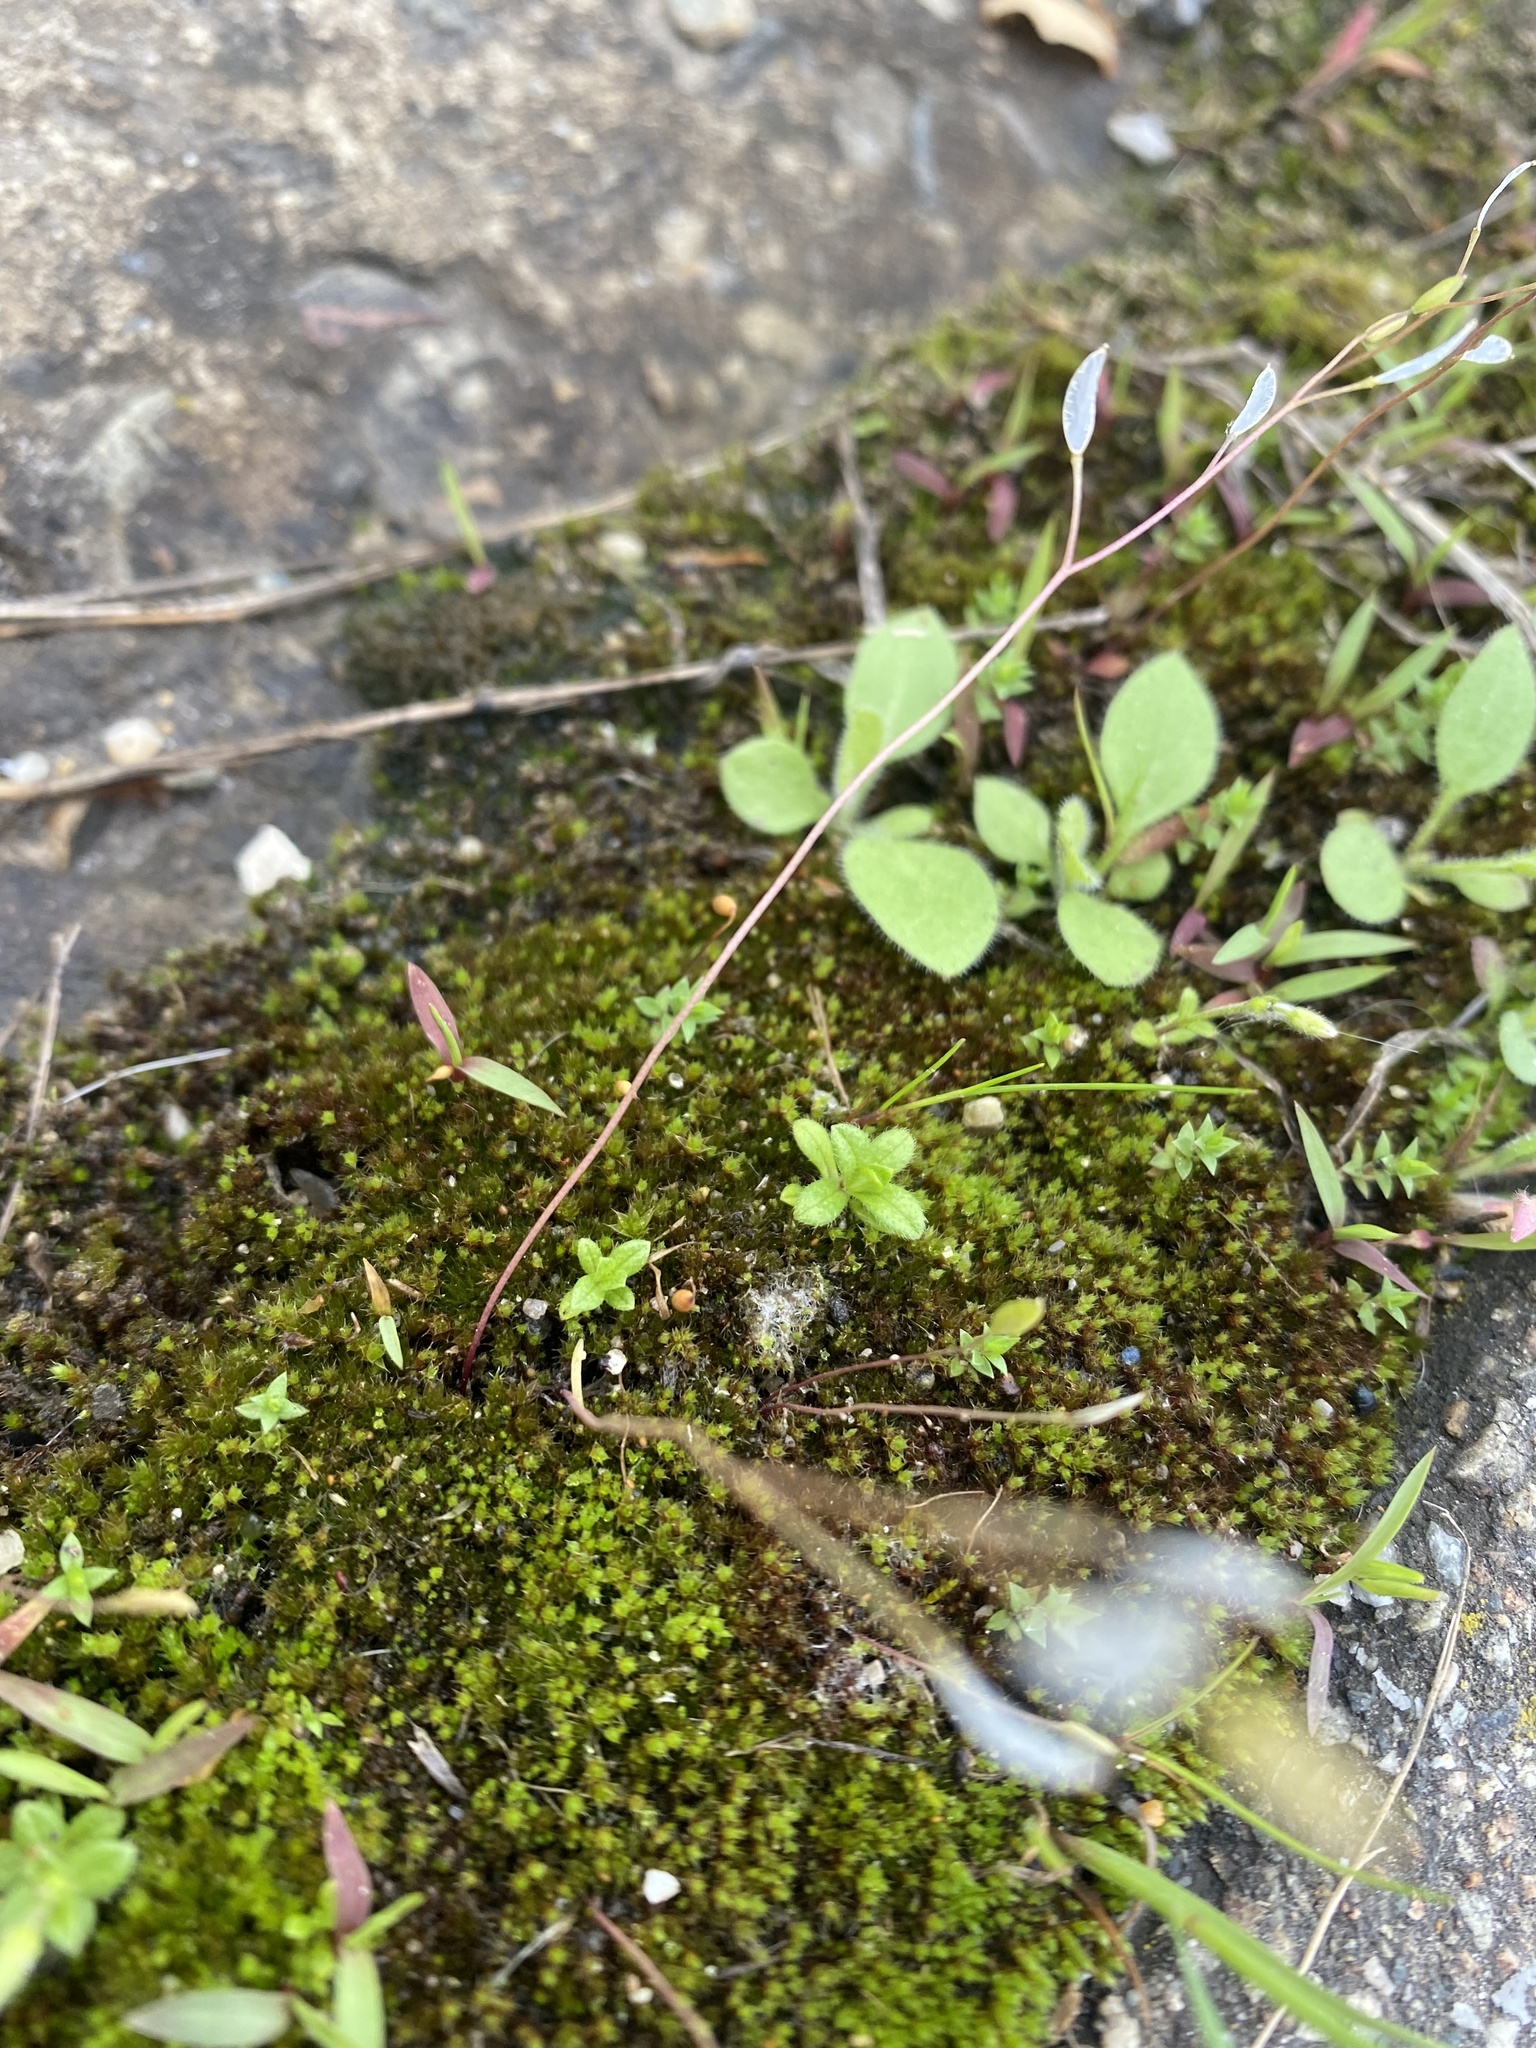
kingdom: Plantae
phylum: Tracheophyta
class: Magnoliopsida
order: Brassicales
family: Brassicaceae
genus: Draba
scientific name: Draba verna
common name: Spring draba
